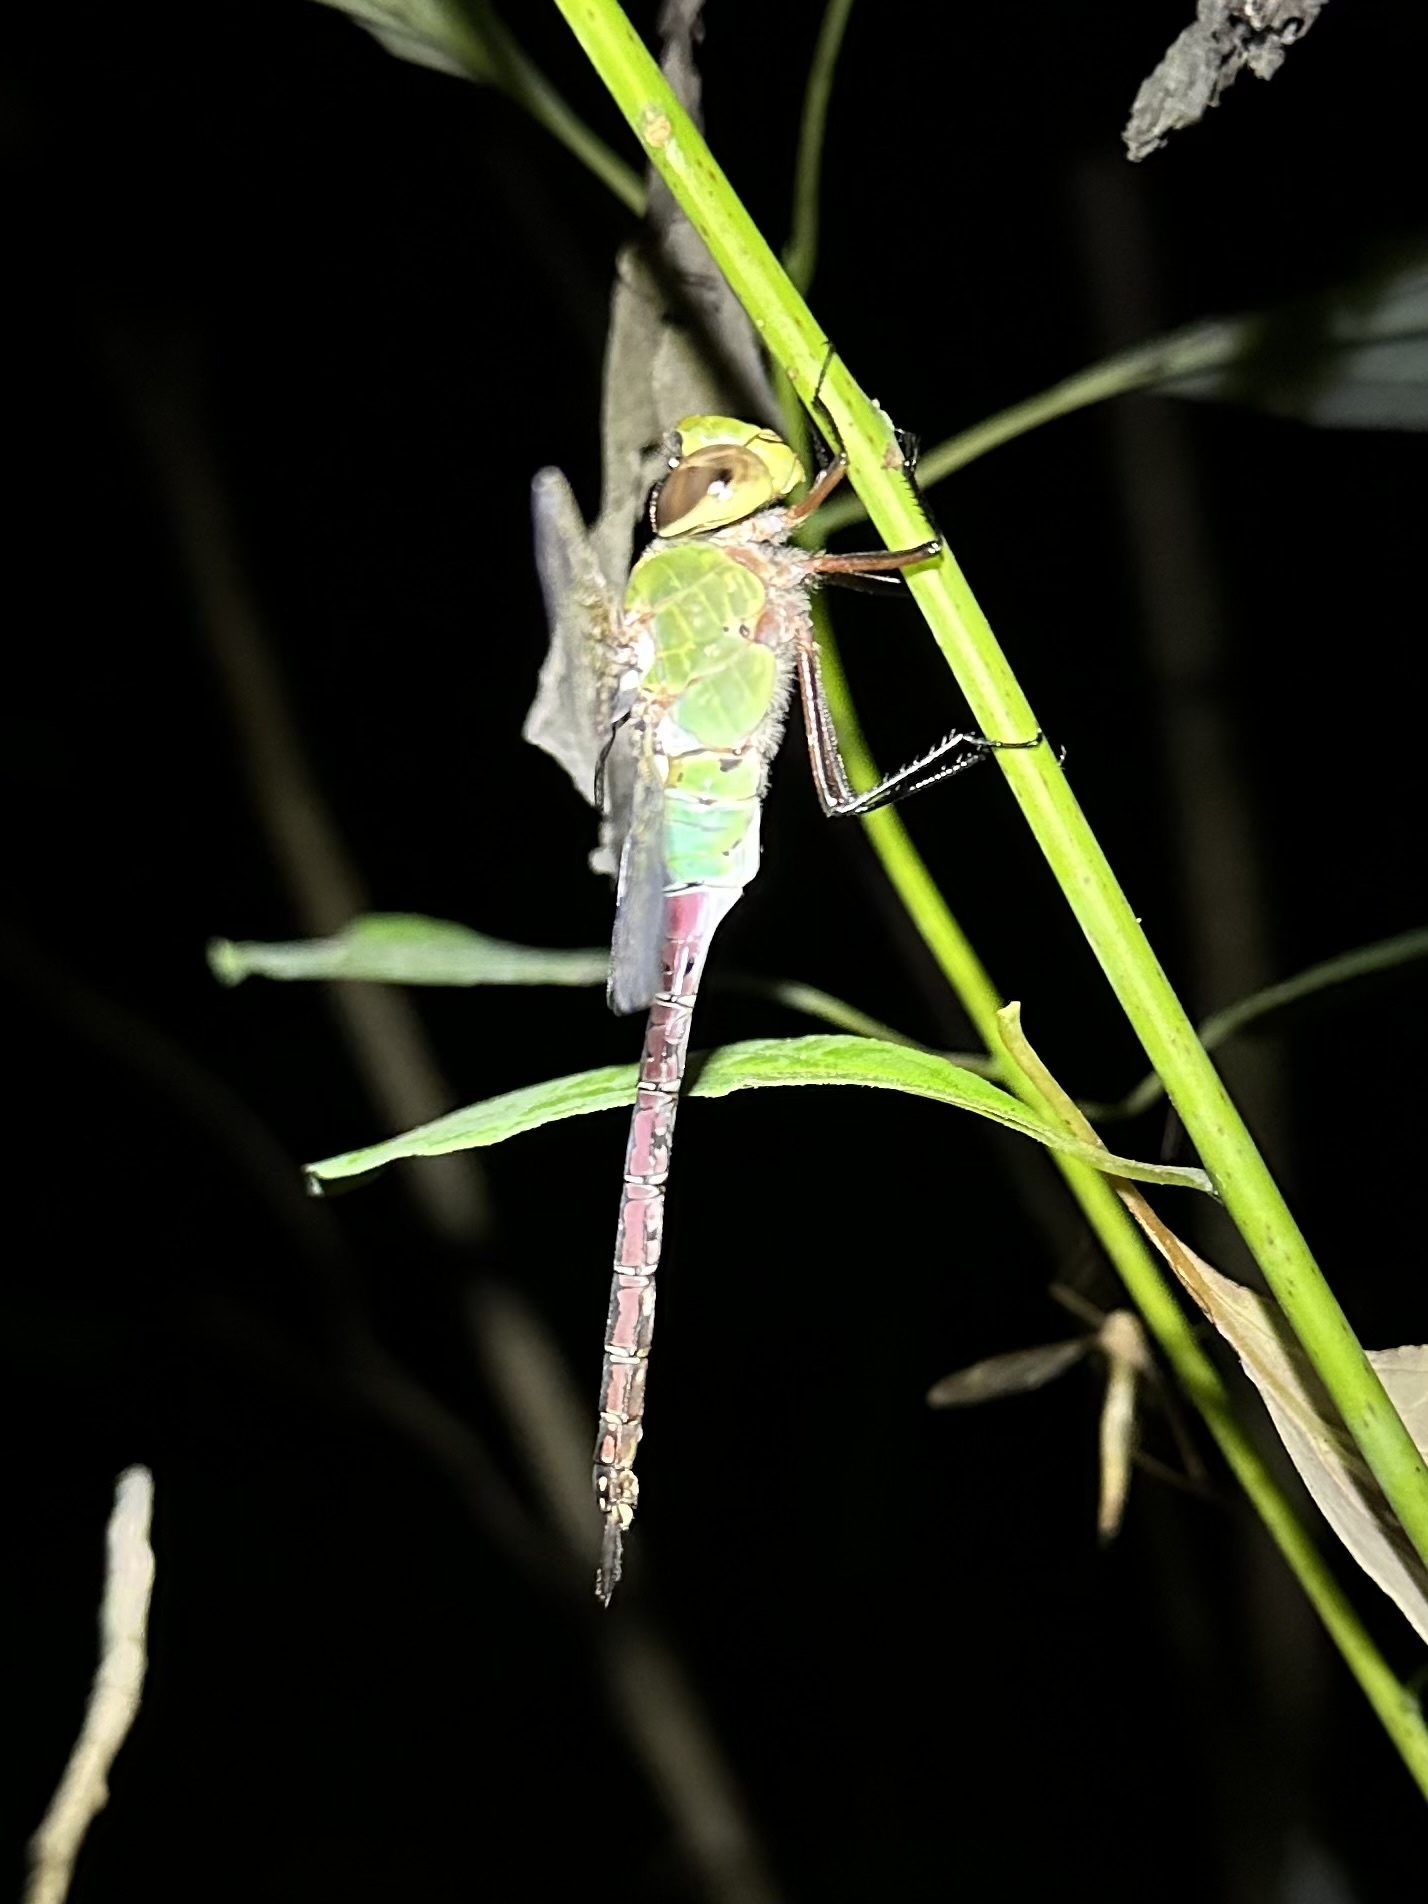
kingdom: Animalia
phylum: Arthropoda
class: Insecta
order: Odonata
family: Aeshnidae
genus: Anax
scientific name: Anax junius
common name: Common green darner
